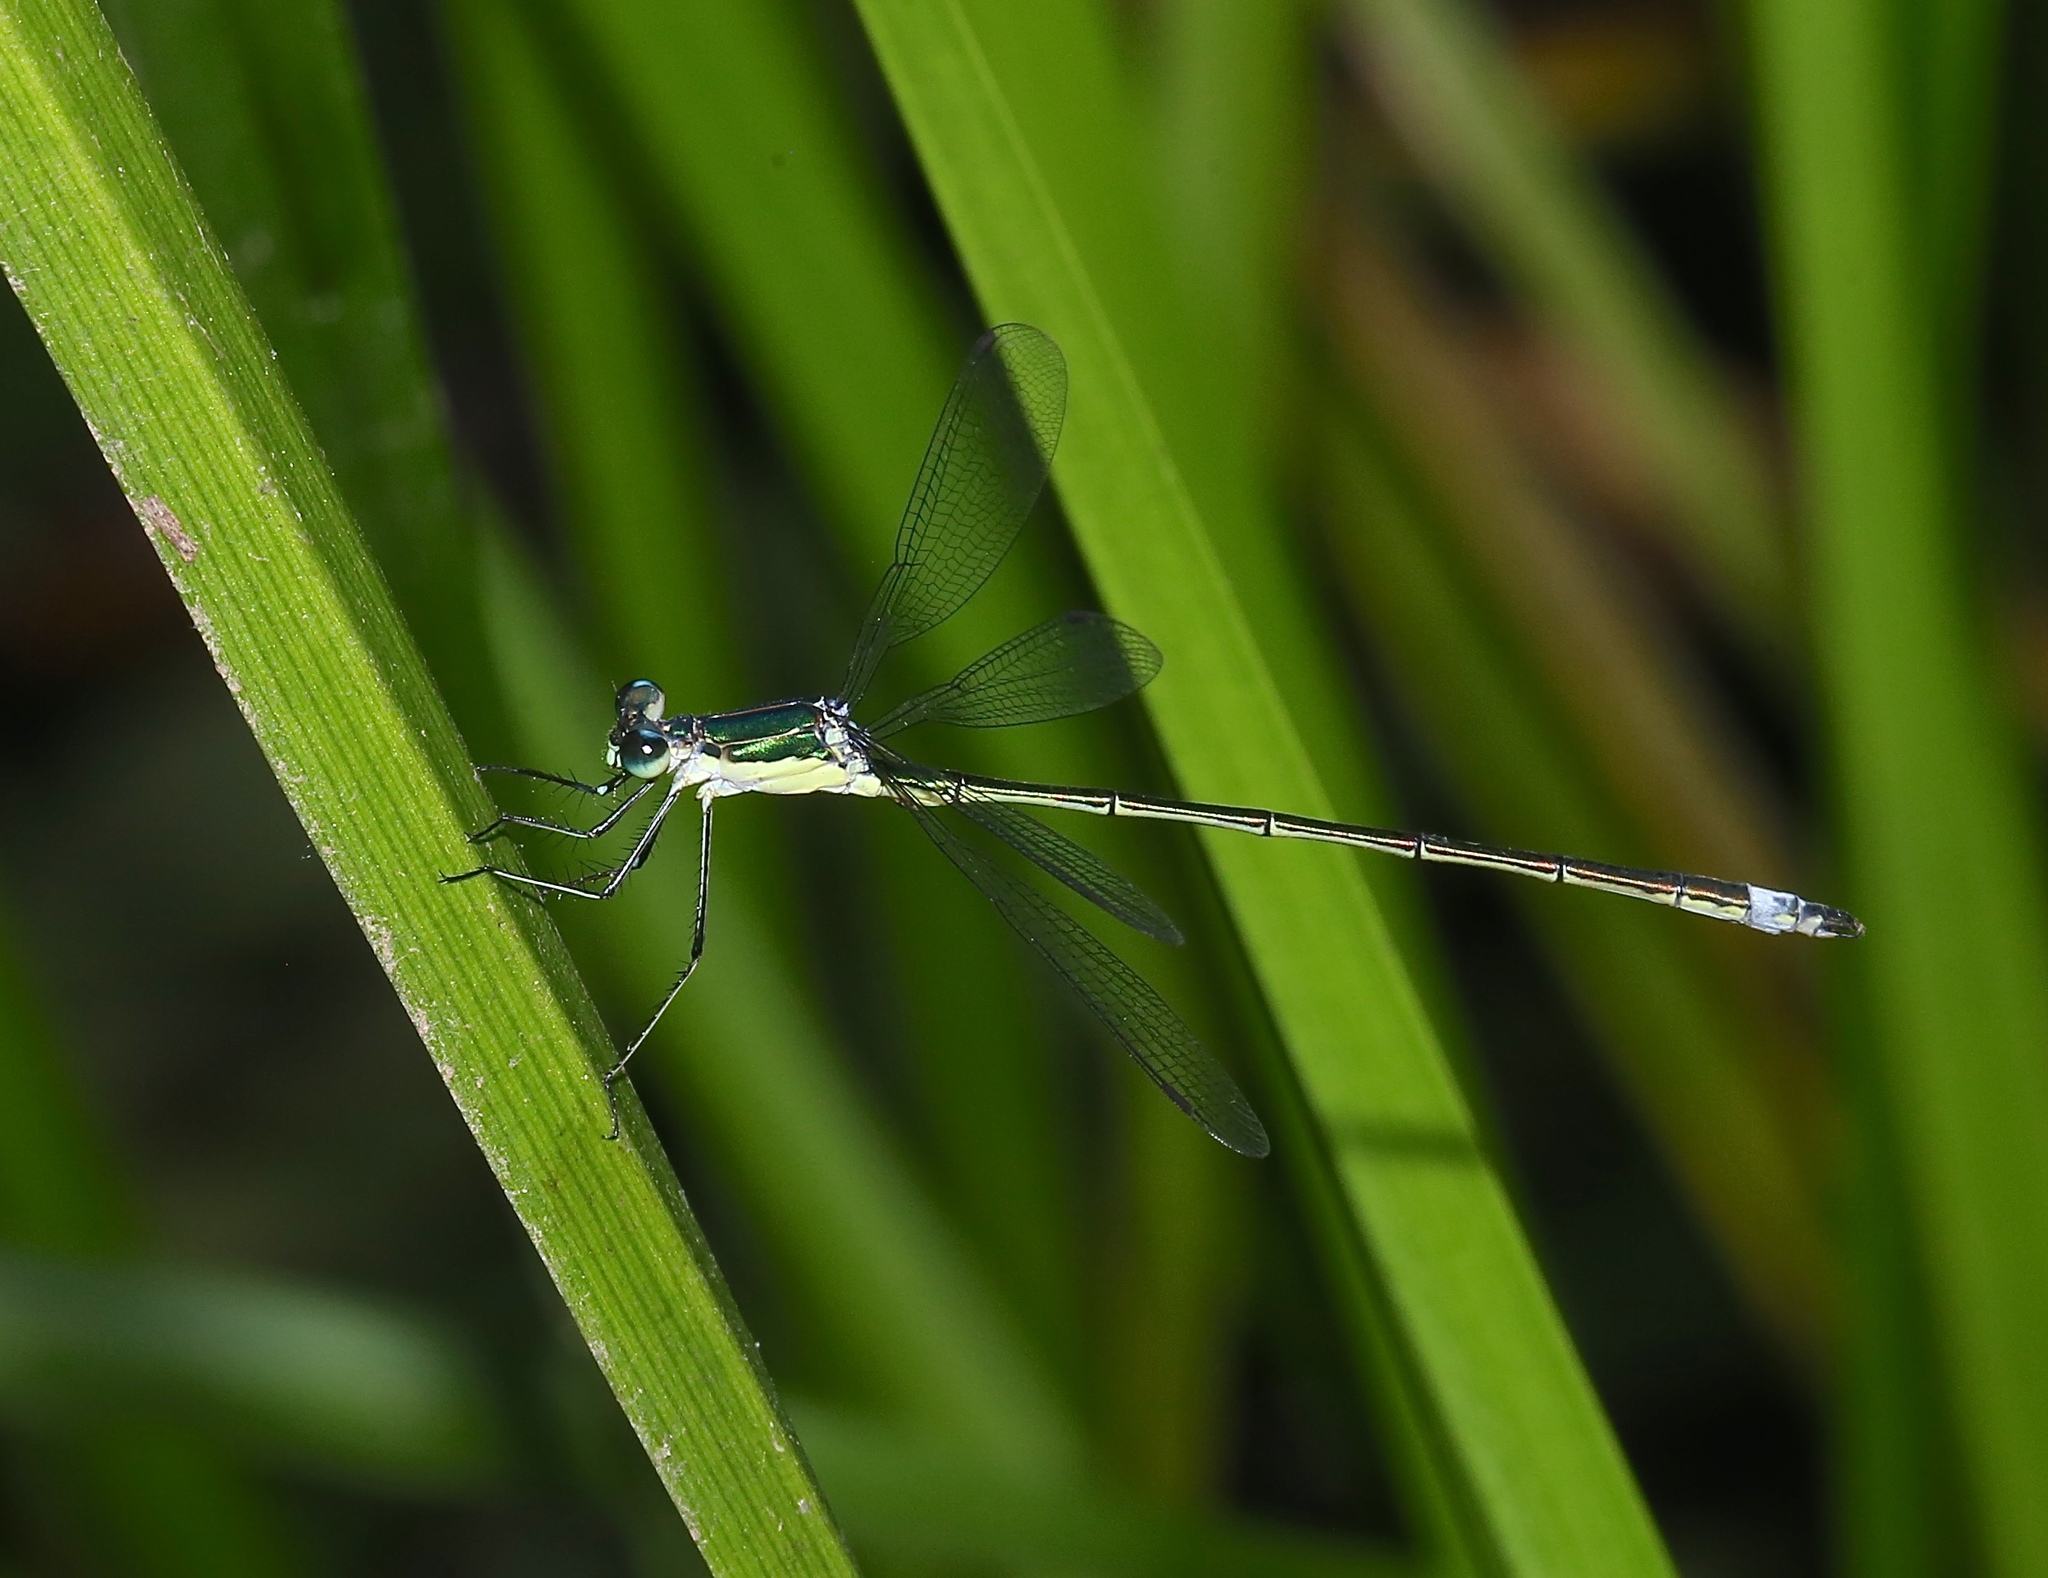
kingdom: Animalia
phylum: Arthropoda
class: Insecta
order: Odonata
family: Lestidae
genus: Lestes
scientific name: Lestes inaequalis
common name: Elegant spreadwing
